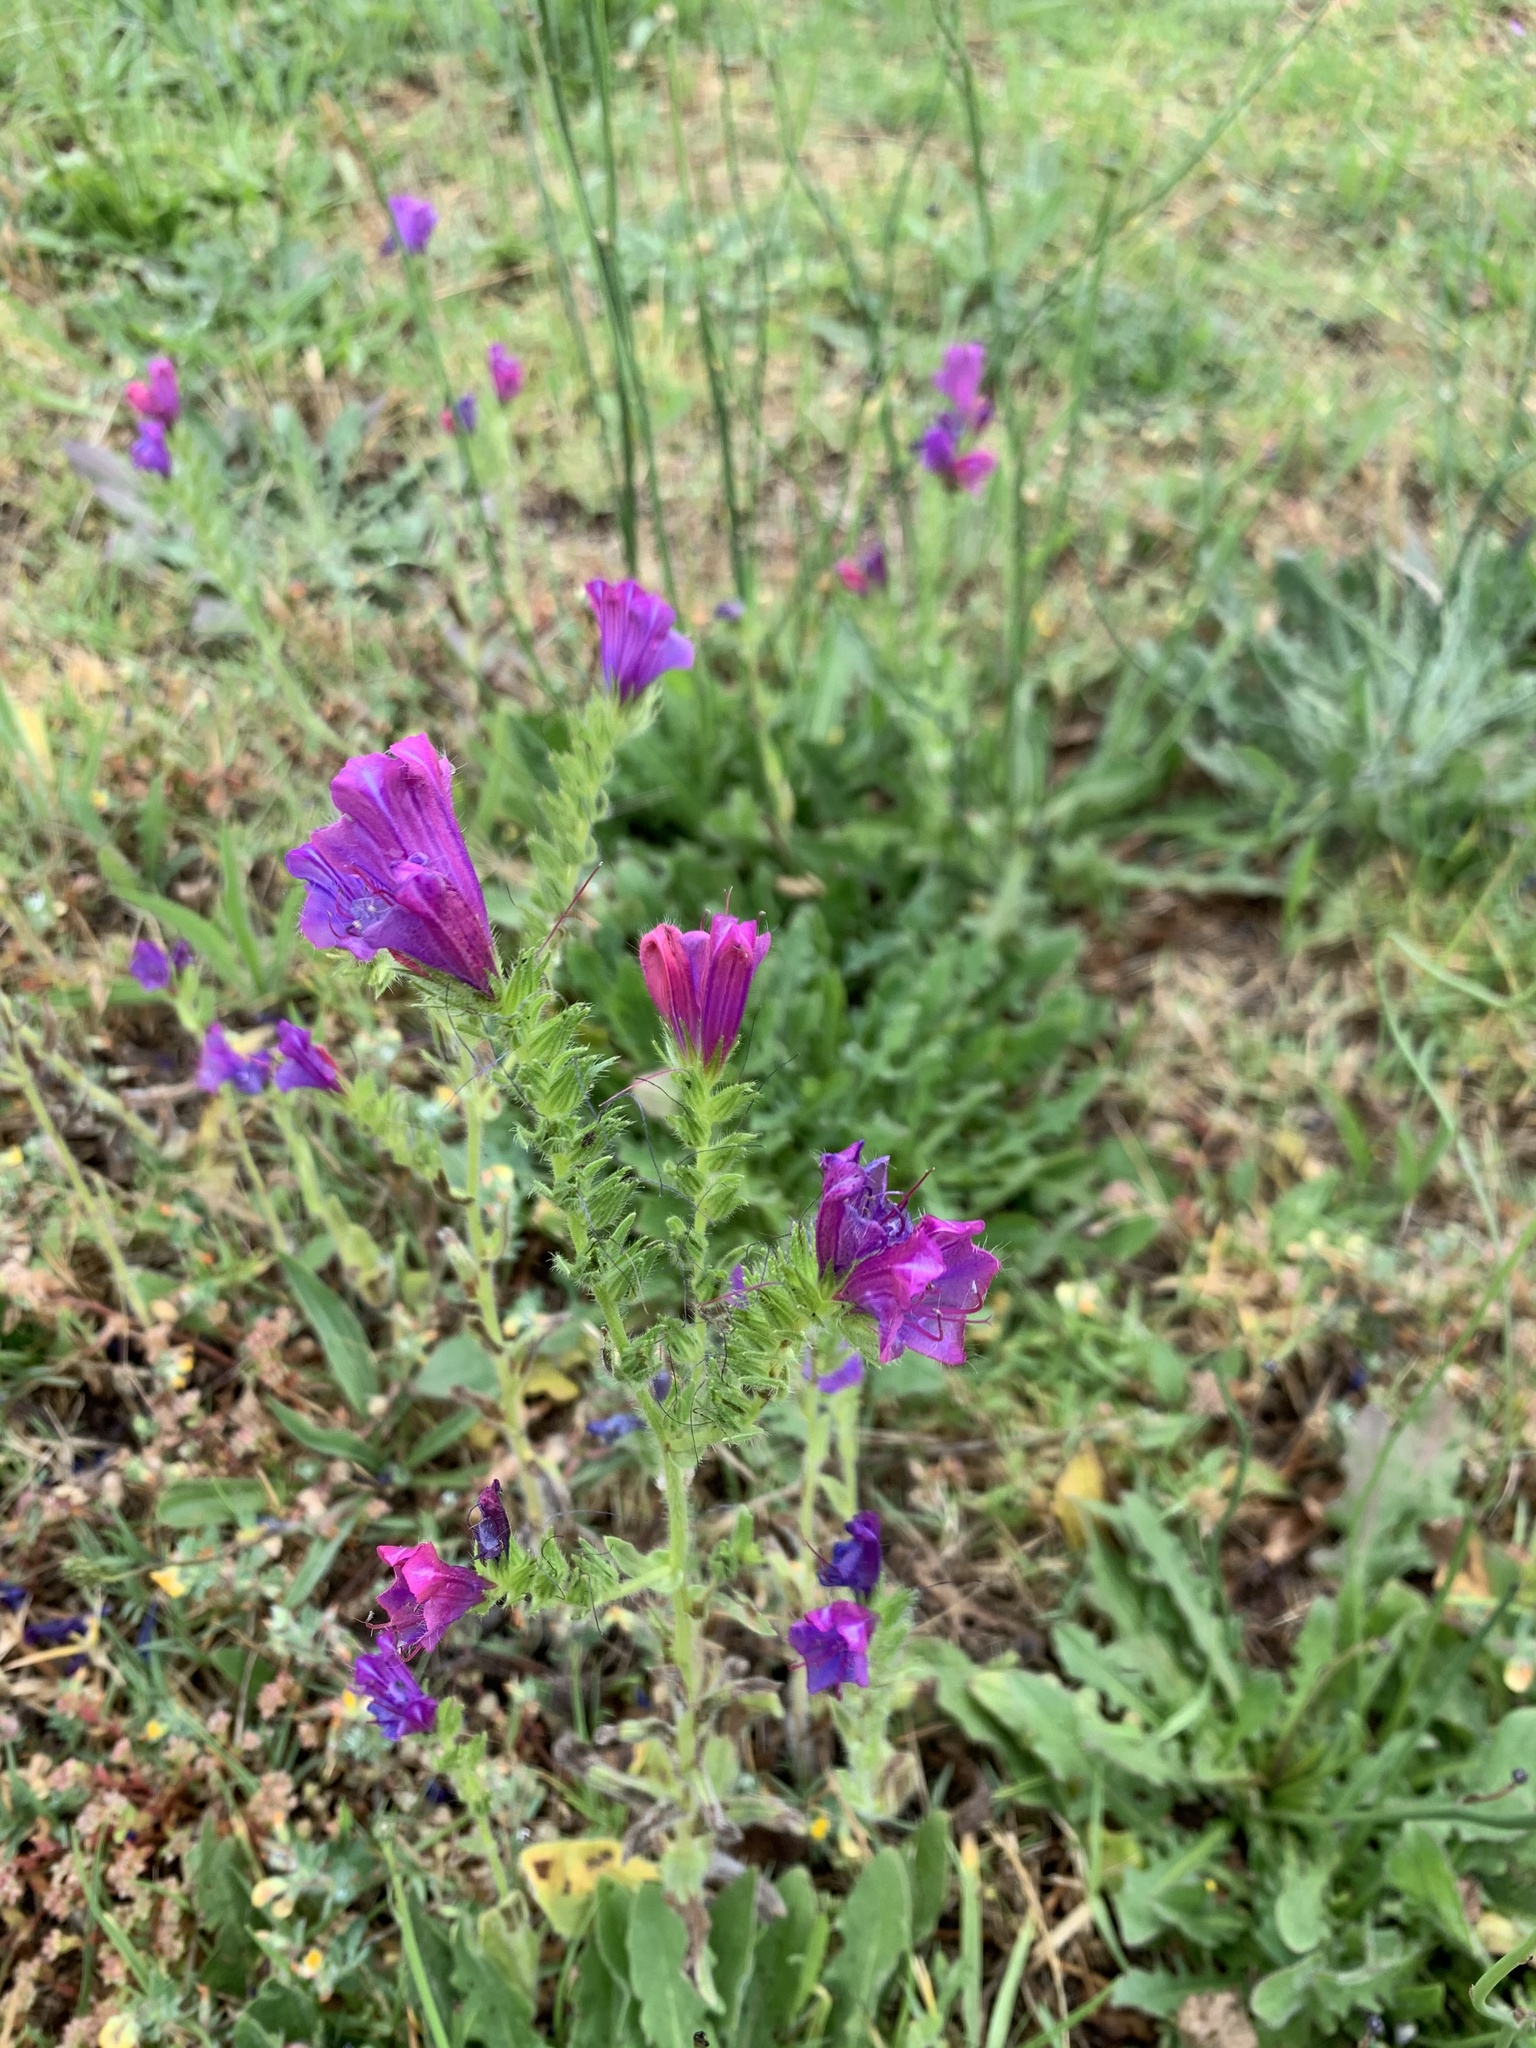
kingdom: Plantae
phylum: Tracheophyta
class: Magnoliopsida
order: Boraginales
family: Boraginaceae
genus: Echium
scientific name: Echium plantagineum
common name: Purple viper's-bugloss
